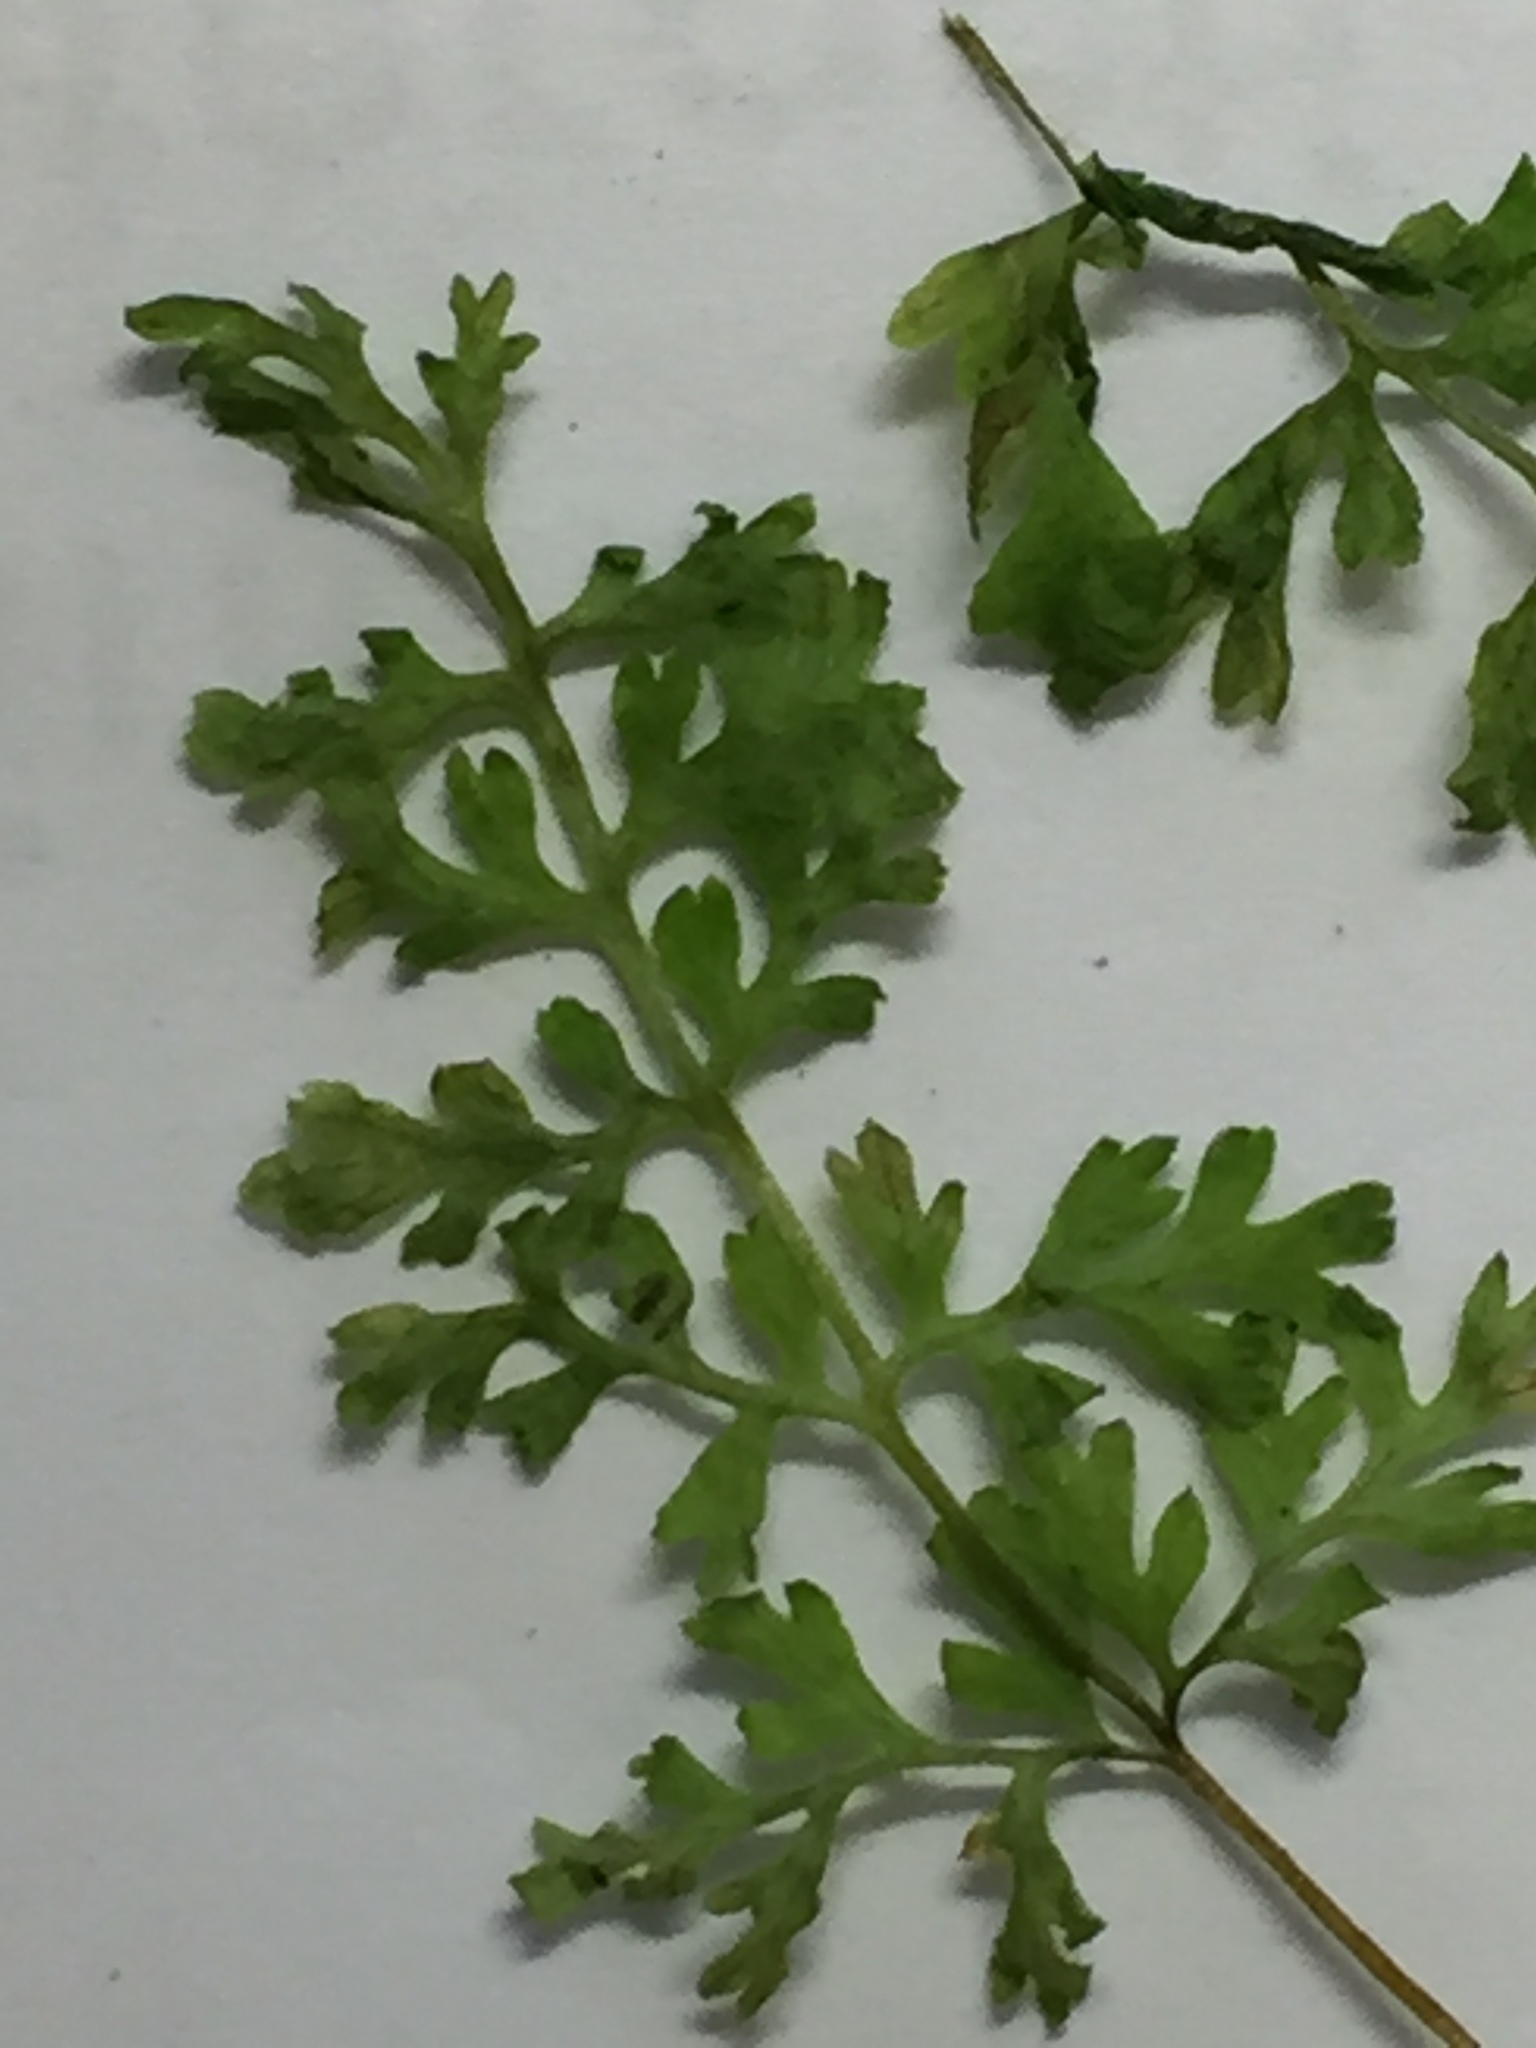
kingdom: Plantae
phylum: Tracheophyta
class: Polypodiopsida
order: Polypodiales
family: Cystopteridaceae
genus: Cystopteris
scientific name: Cystopteris tasmanica
